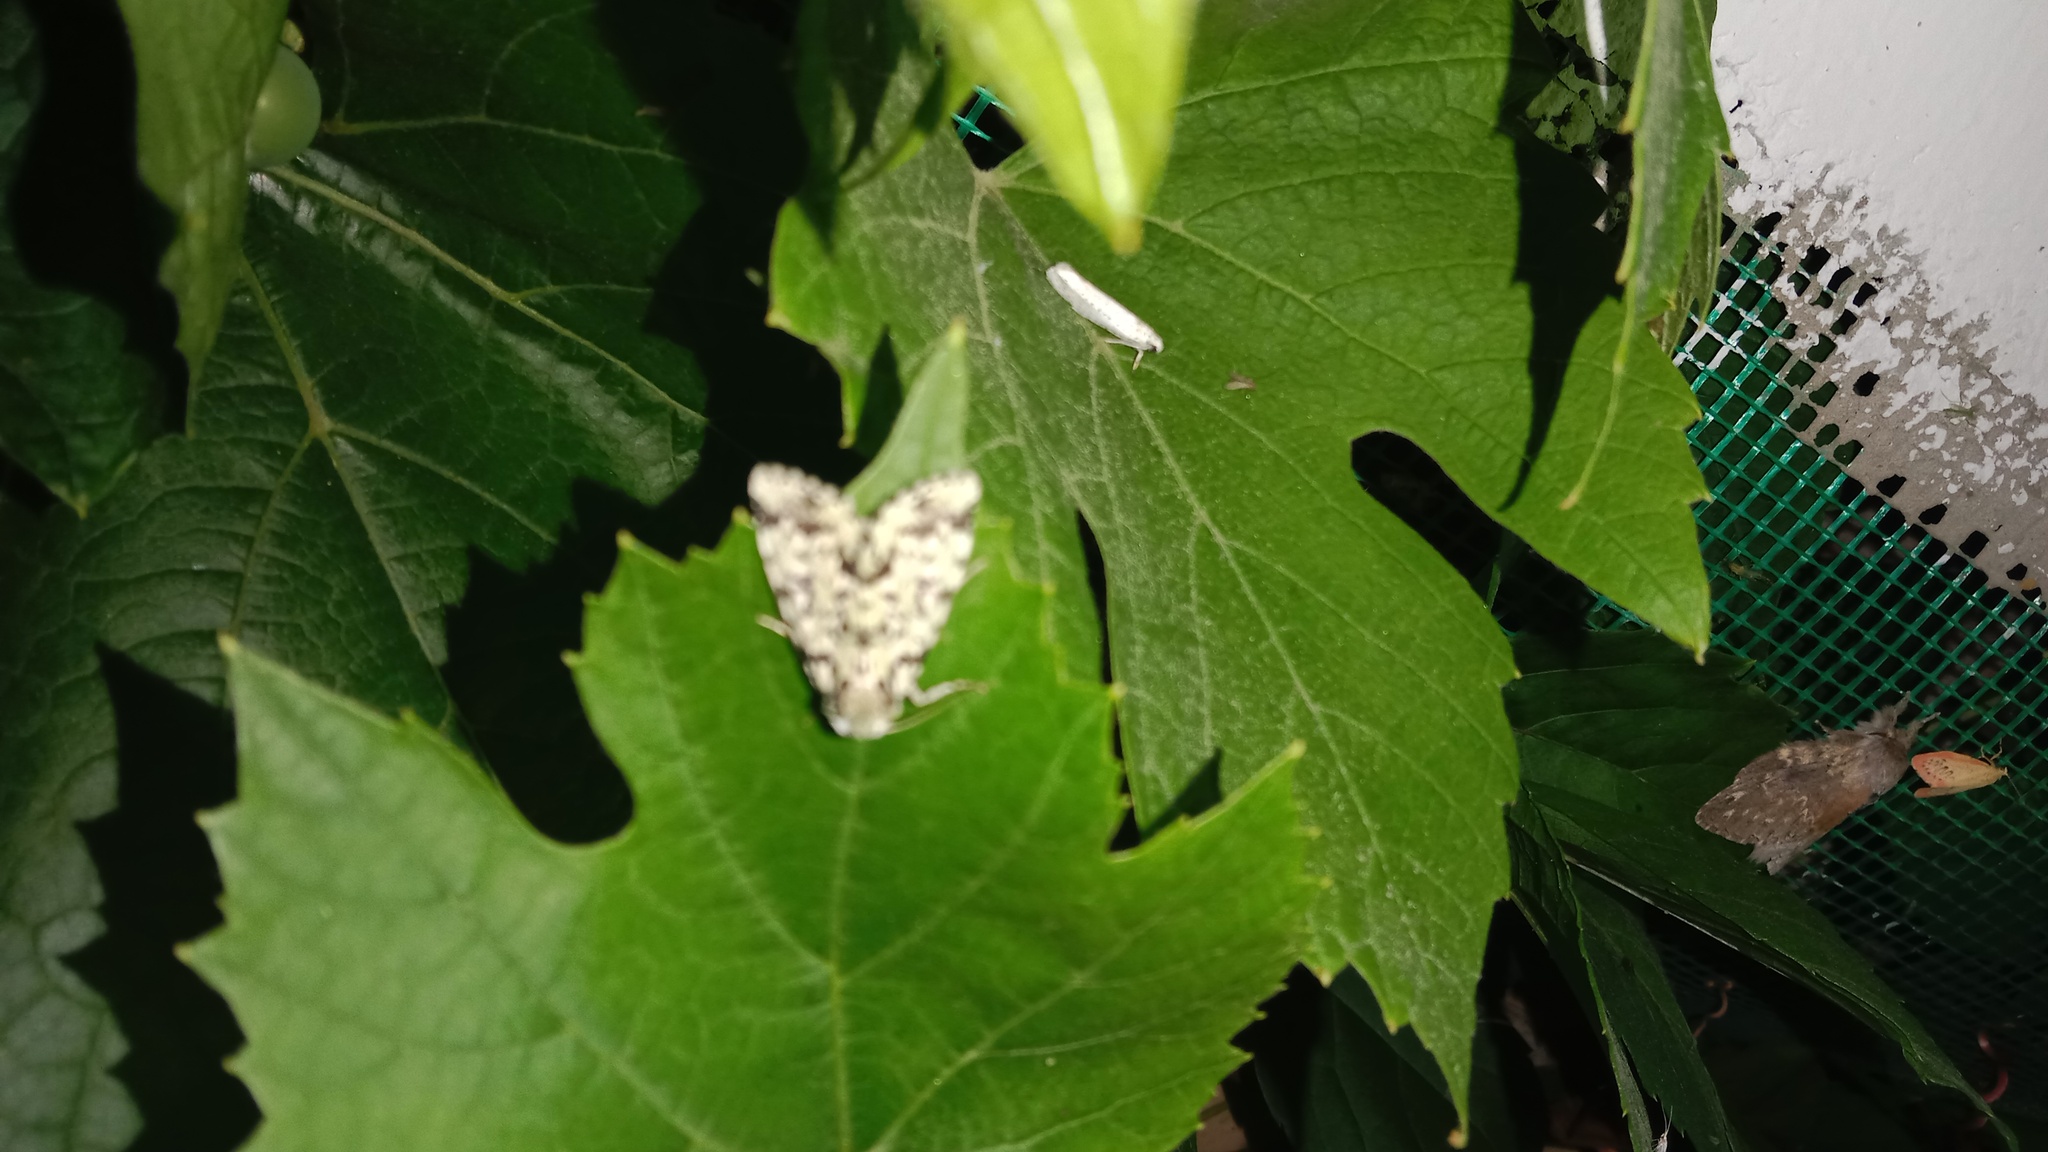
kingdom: Animalia
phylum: Arthropoda
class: Insecta
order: Lepidoptera
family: Noctuidae
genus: Moma
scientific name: Moma alpium
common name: Scarce merveille du jour
